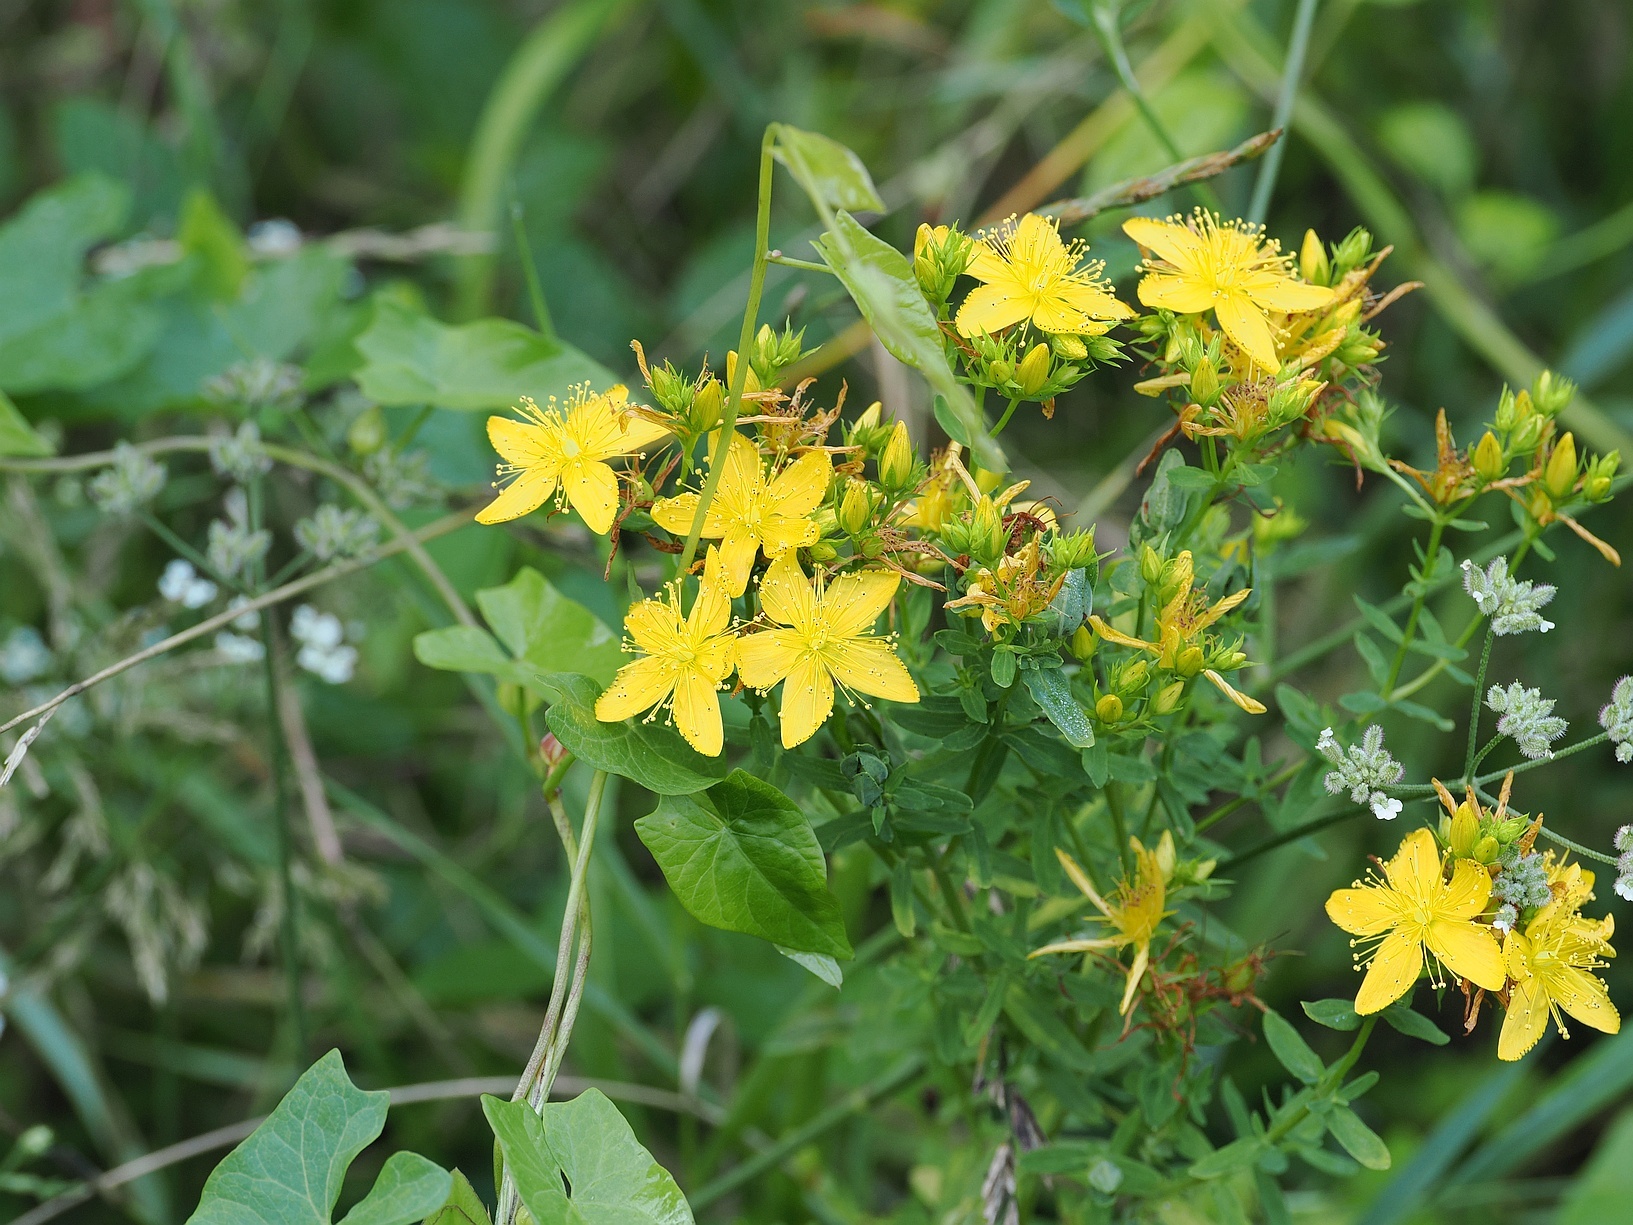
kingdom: Plantae
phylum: Tracheophyta
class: Magnoliopsida
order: Malpighiales
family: Hypericaceae
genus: Hypericum
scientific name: Hypericum perforatum
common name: Common st. johnswort
